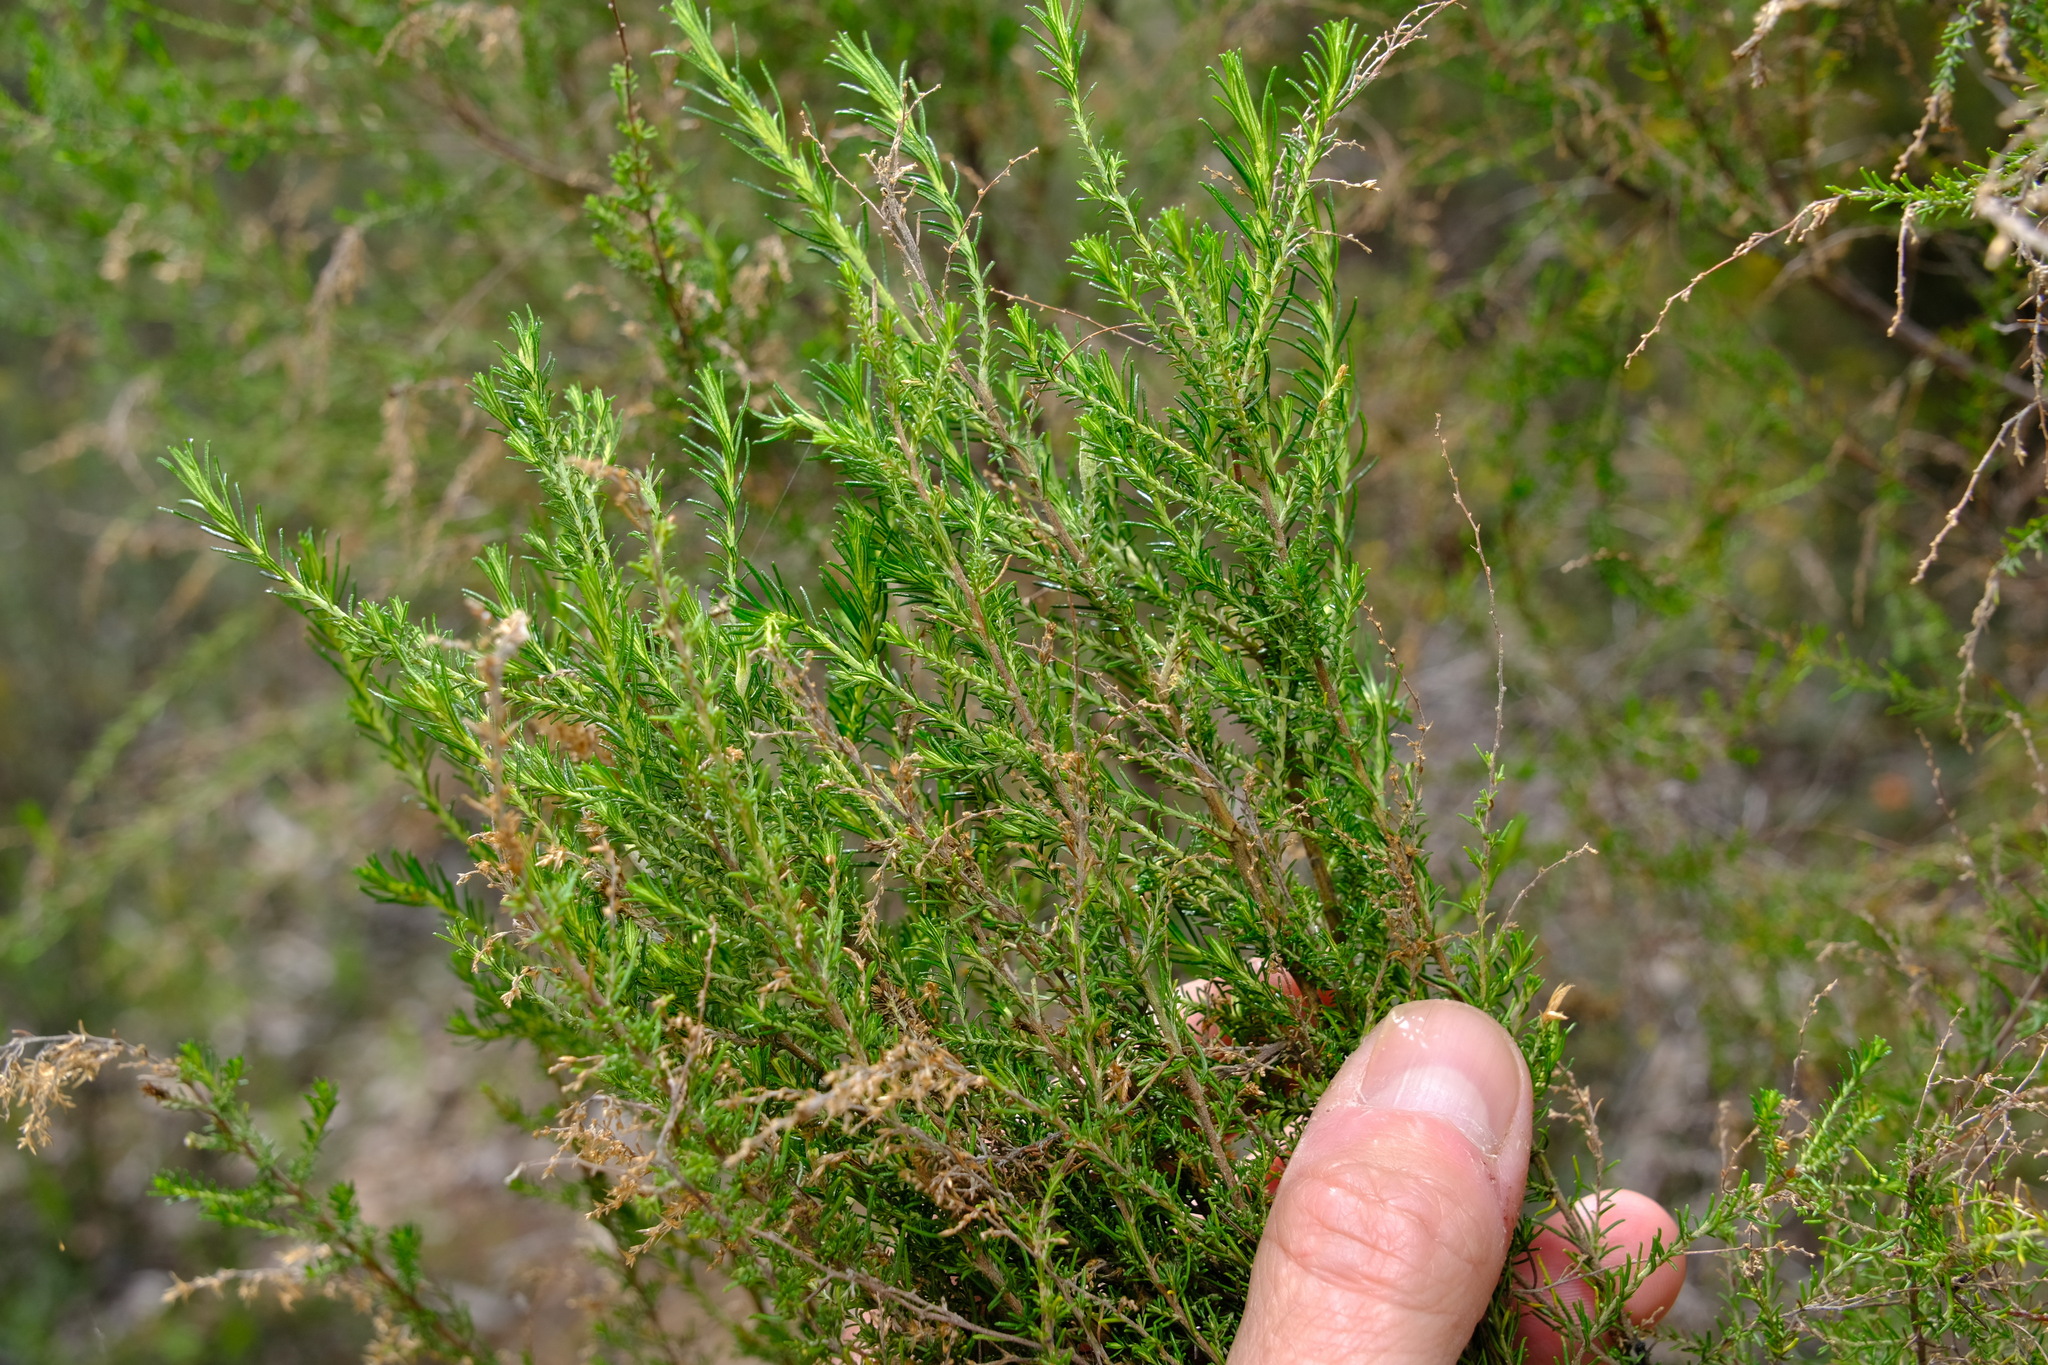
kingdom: Plantae
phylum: Tracheophyta
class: Magnoliopsida
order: Asterales
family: Asteraceae
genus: Cassinia
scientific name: Cassinia sifton
